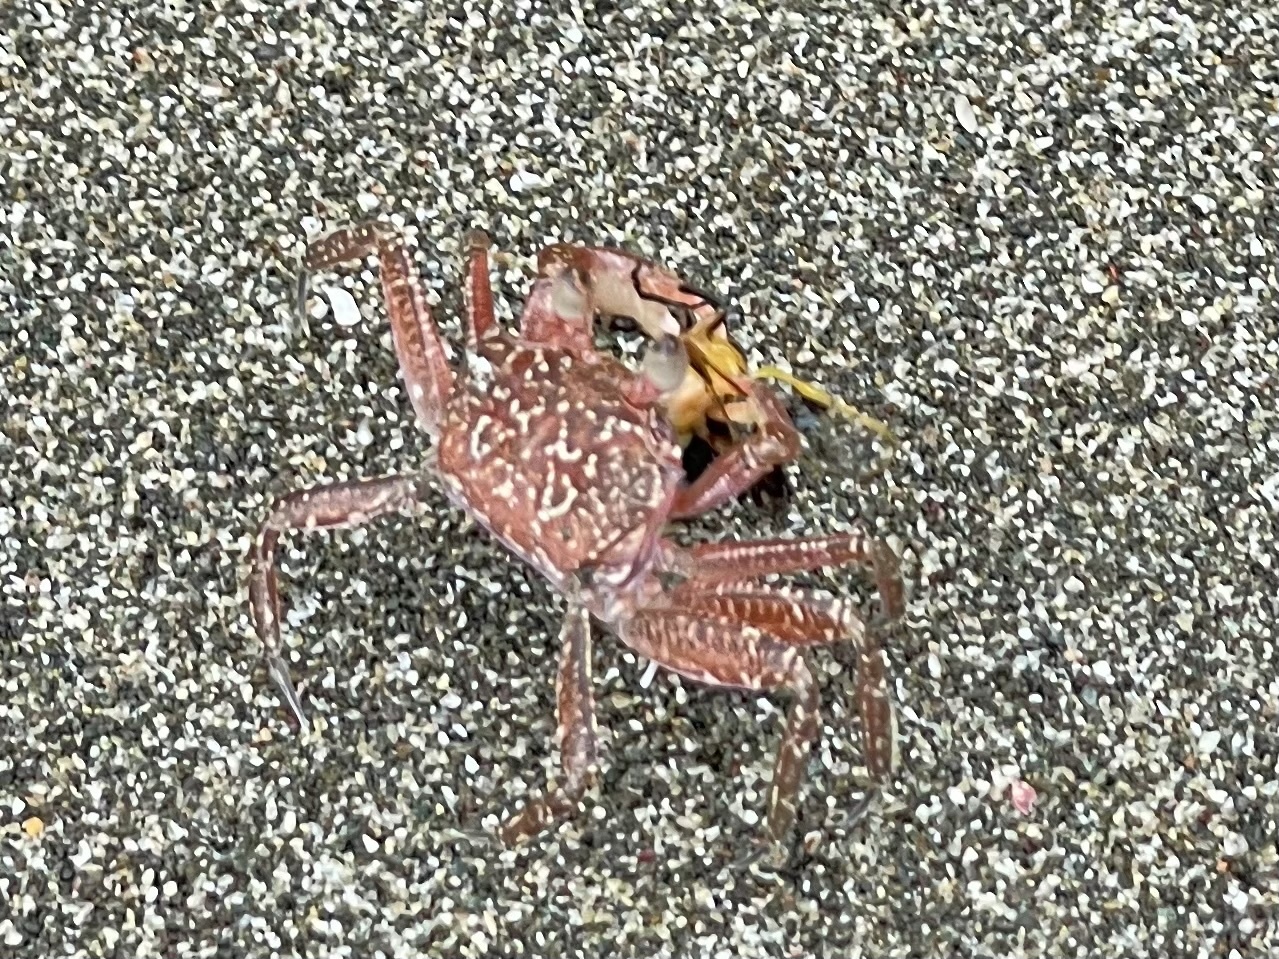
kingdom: Animalia
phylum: Arthropoda
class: Malacostraca
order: Decapoda
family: Ocypodidae
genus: Ocypode
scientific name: Ocypode gaudichaudii
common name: Pacific ghost crab
